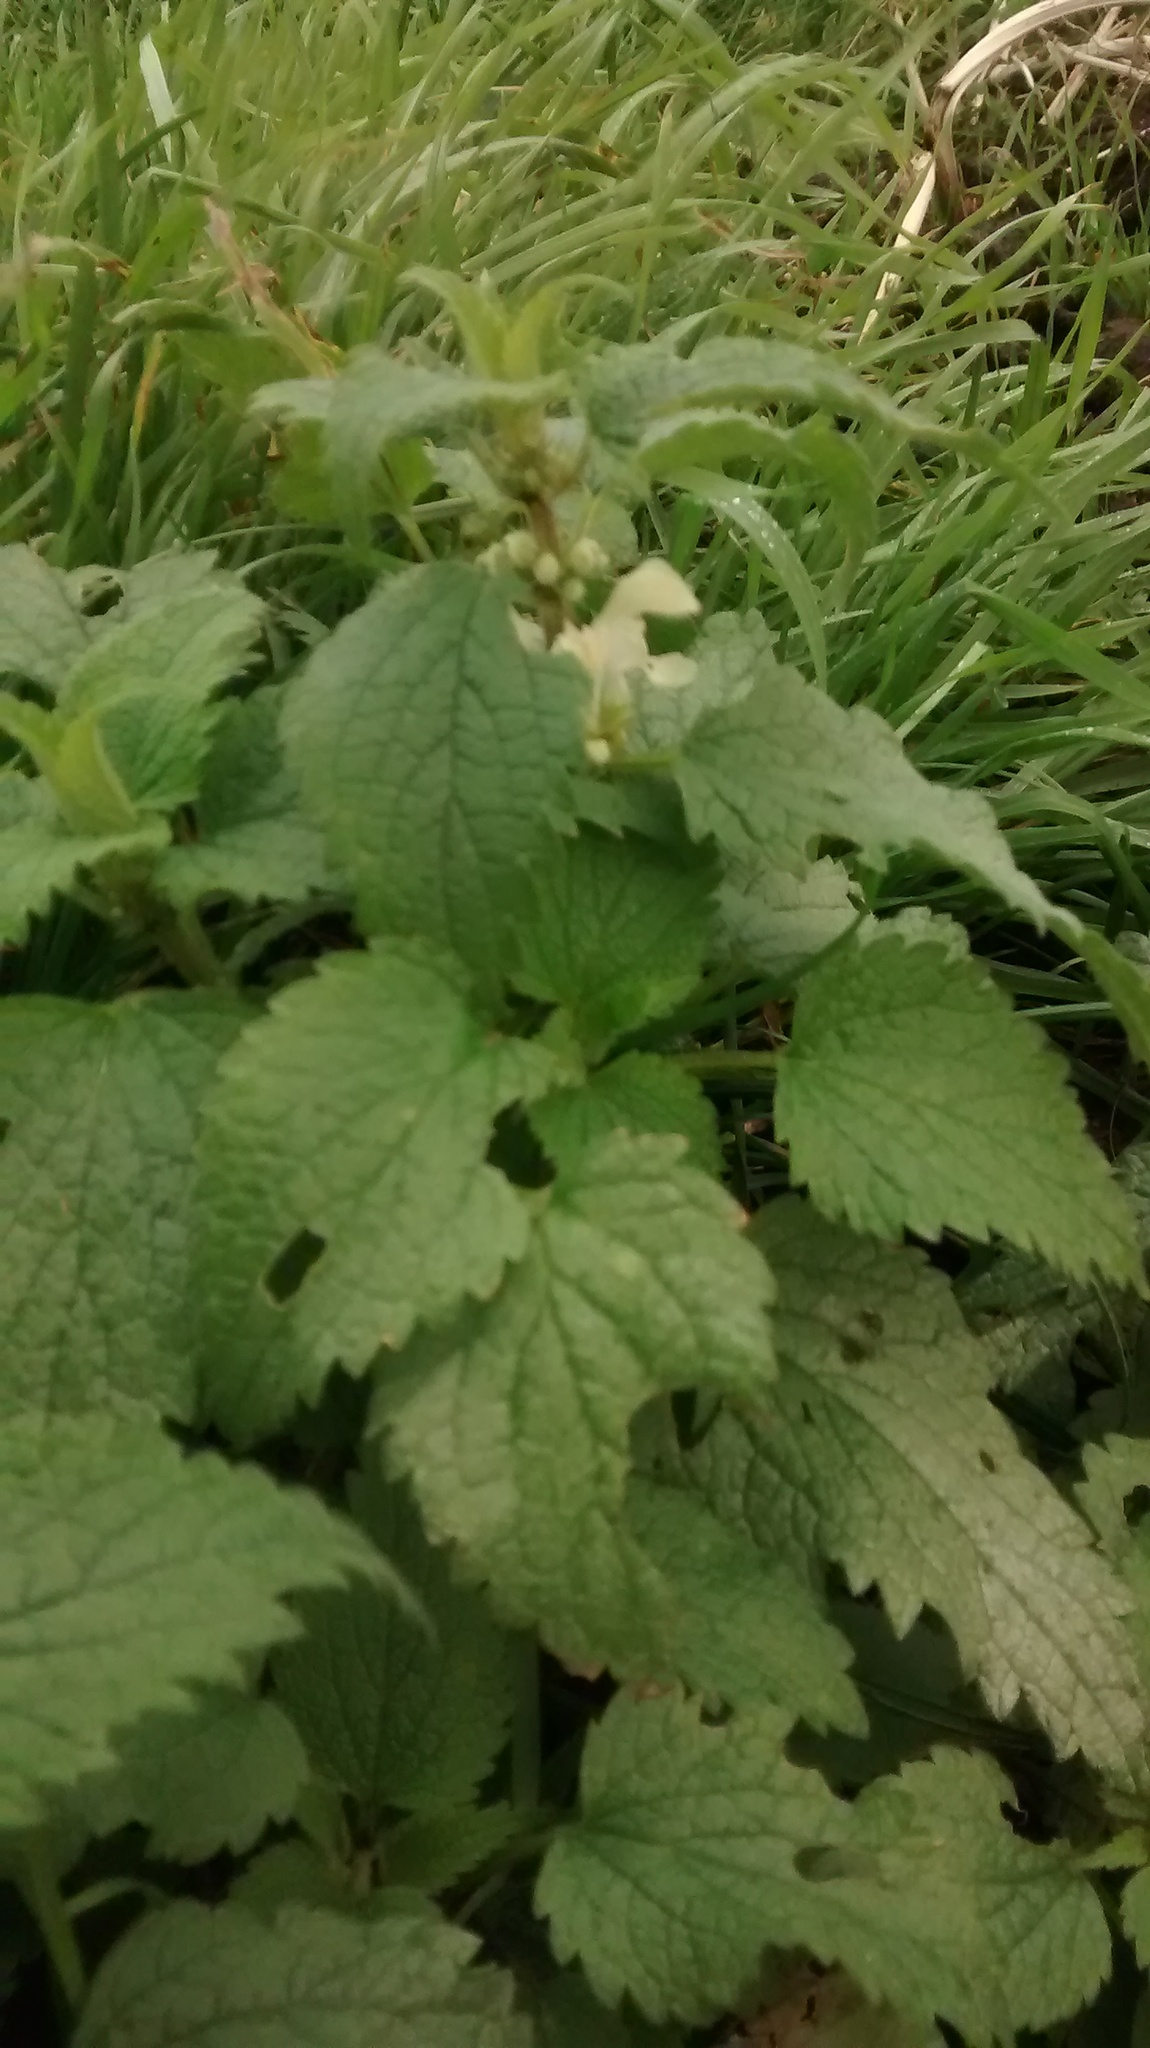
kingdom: Plantae
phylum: Tracheophyta
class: Magnoliopsida
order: Lamiales
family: Lamiaceae
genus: Lamium
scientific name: Lamium album
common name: White dead-nettle
